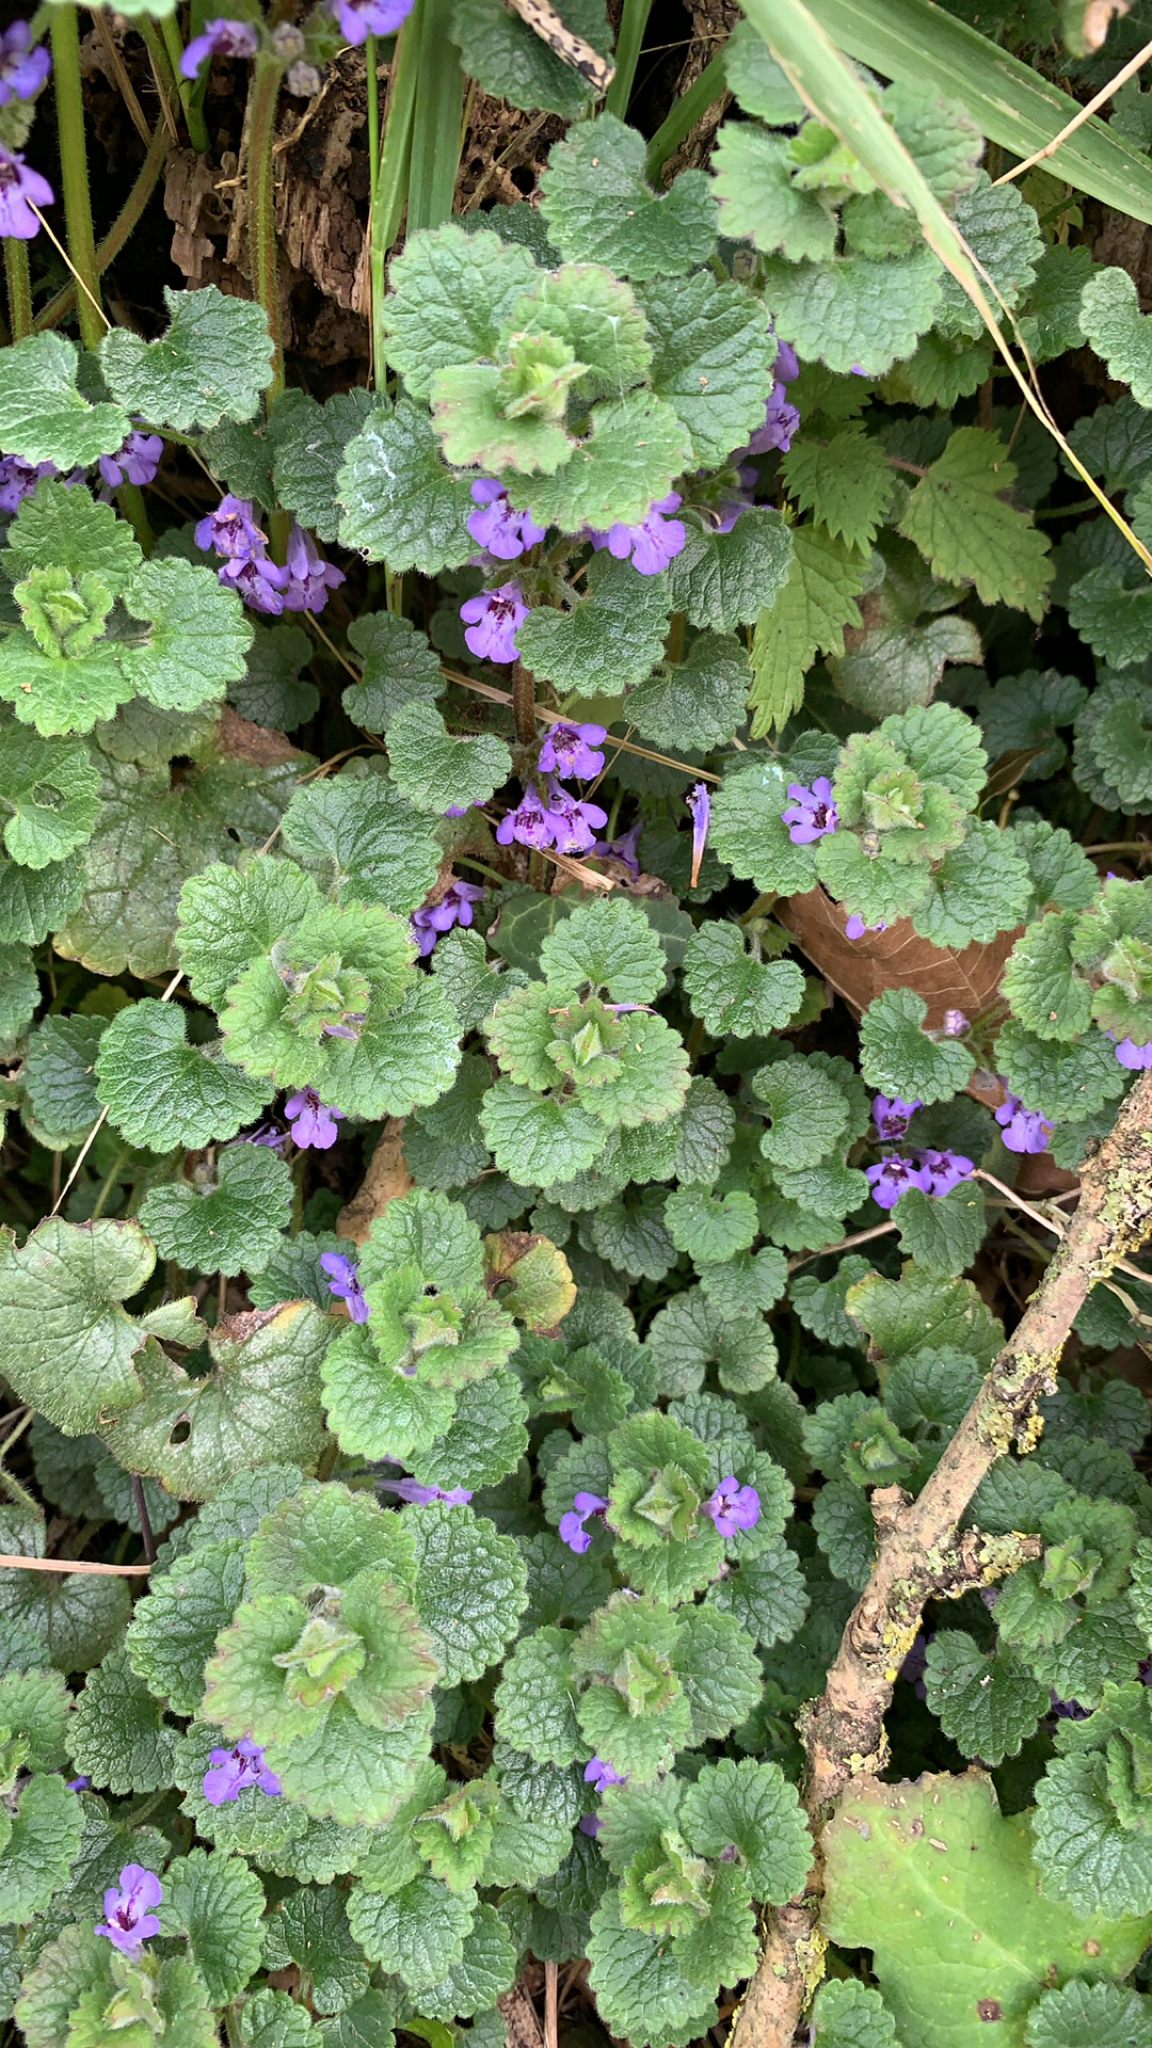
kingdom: Plantae
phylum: Tracheophyta
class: Magnoliopsida
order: Lamiales
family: Lamiaceae
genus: Glechoma
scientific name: Glechoma hederacea
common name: Ground ivy
